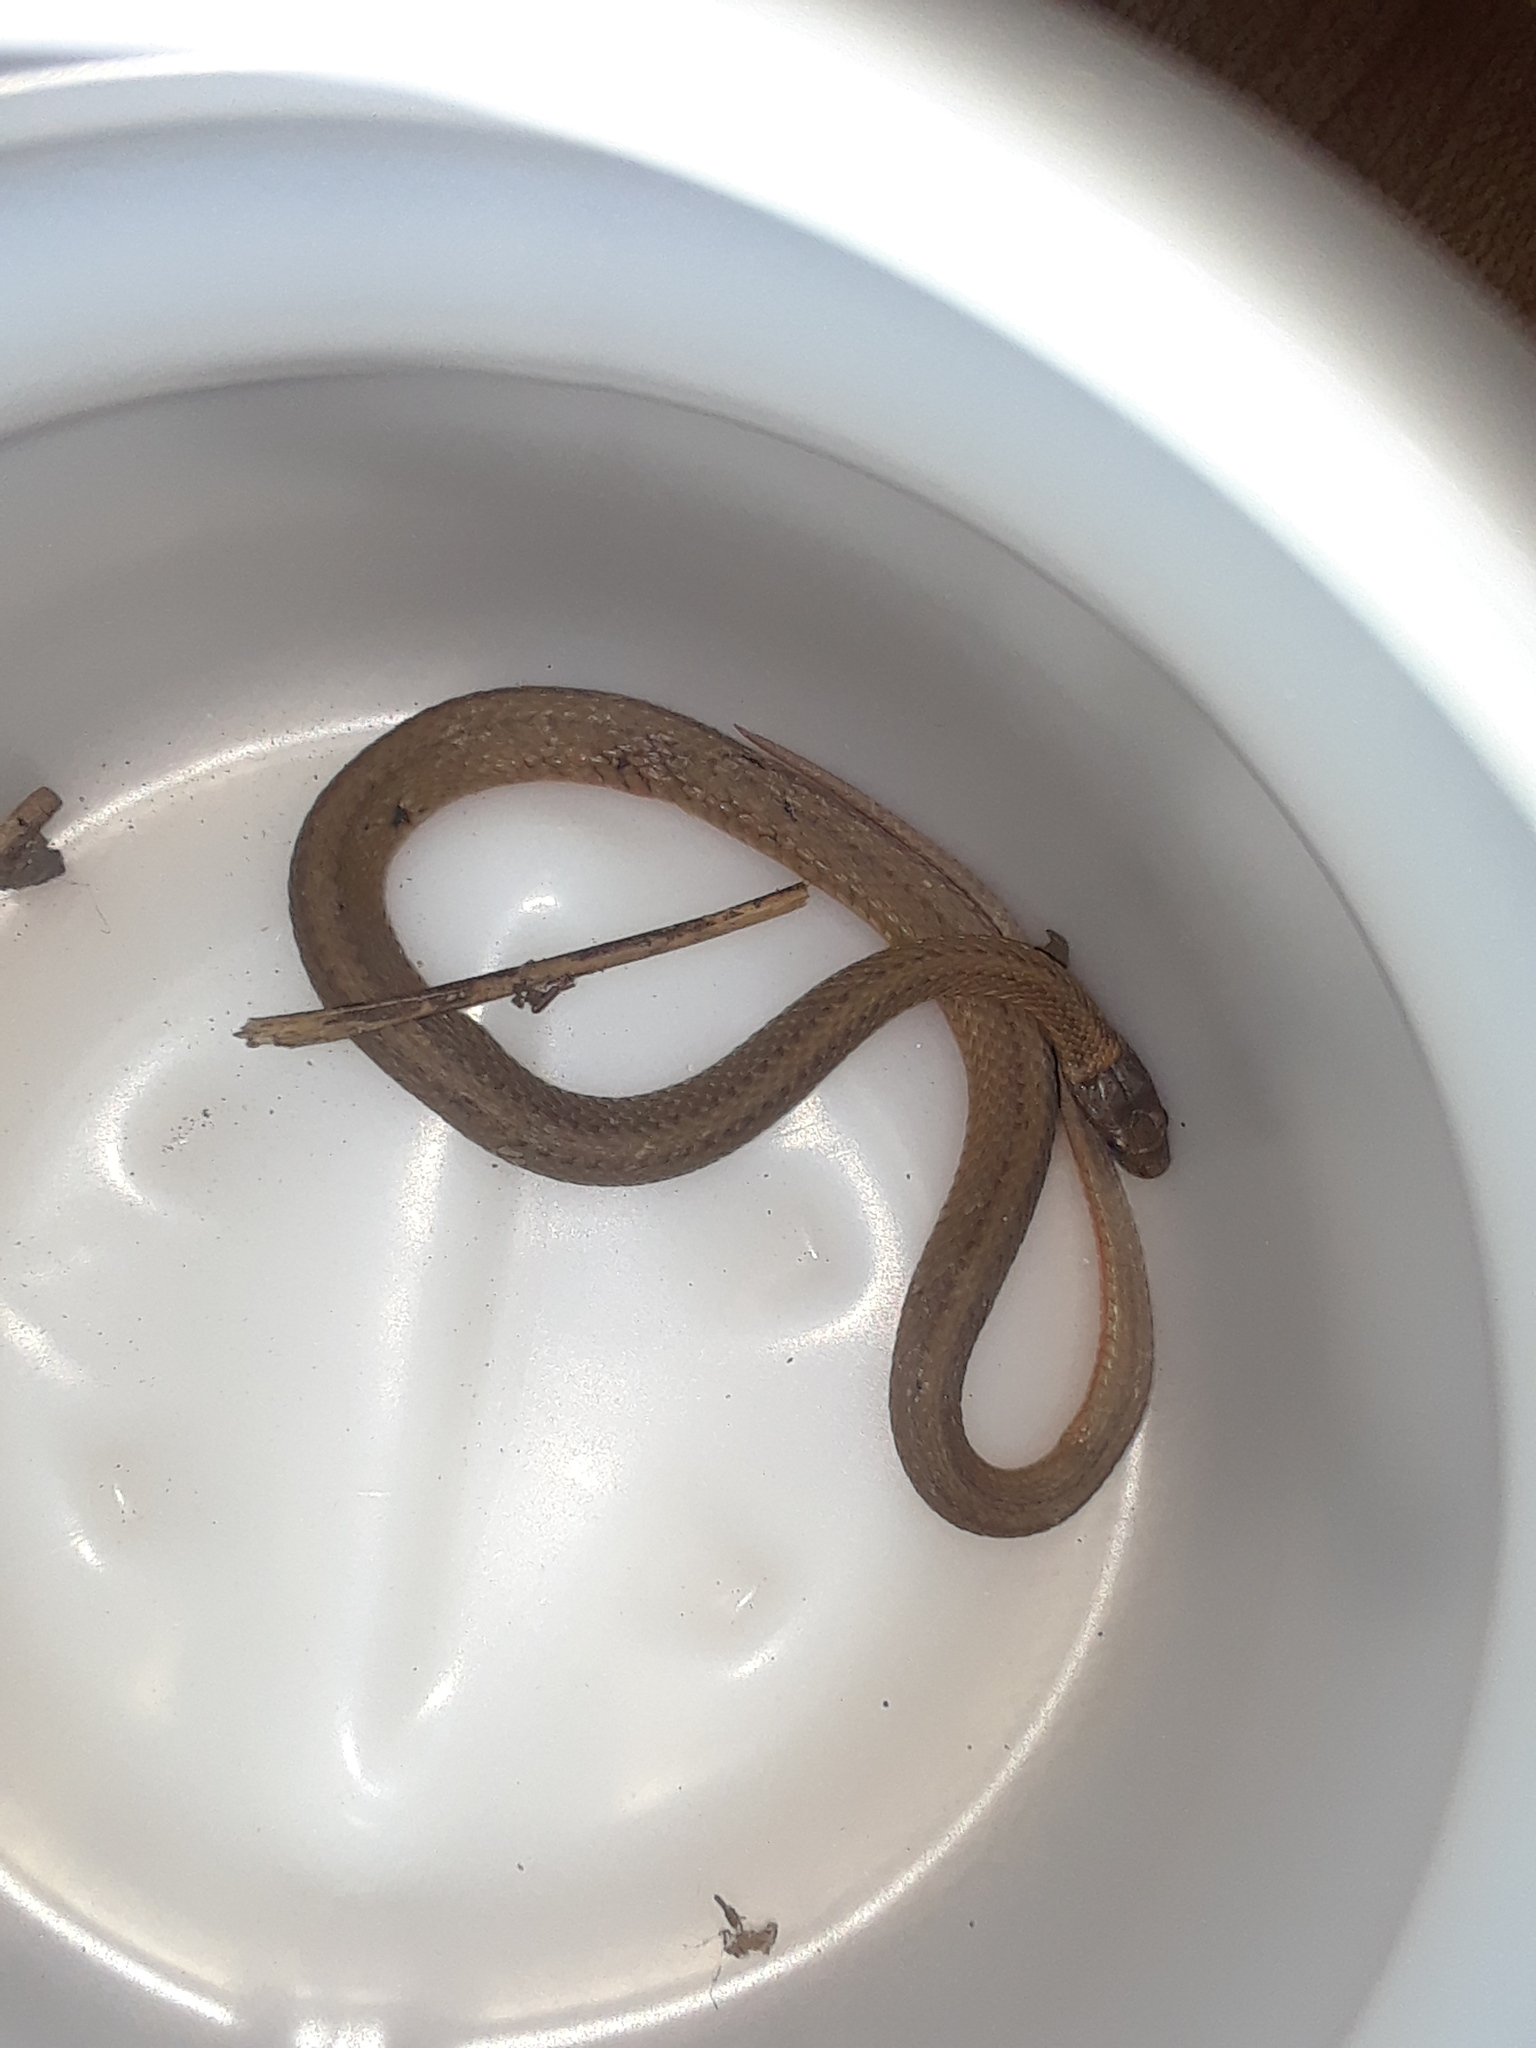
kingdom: Animalia
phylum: Chordata
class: Squamata
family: Colubridae
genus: Storeria
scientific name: Storeria occipitomaculata
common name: Redbelly snake
